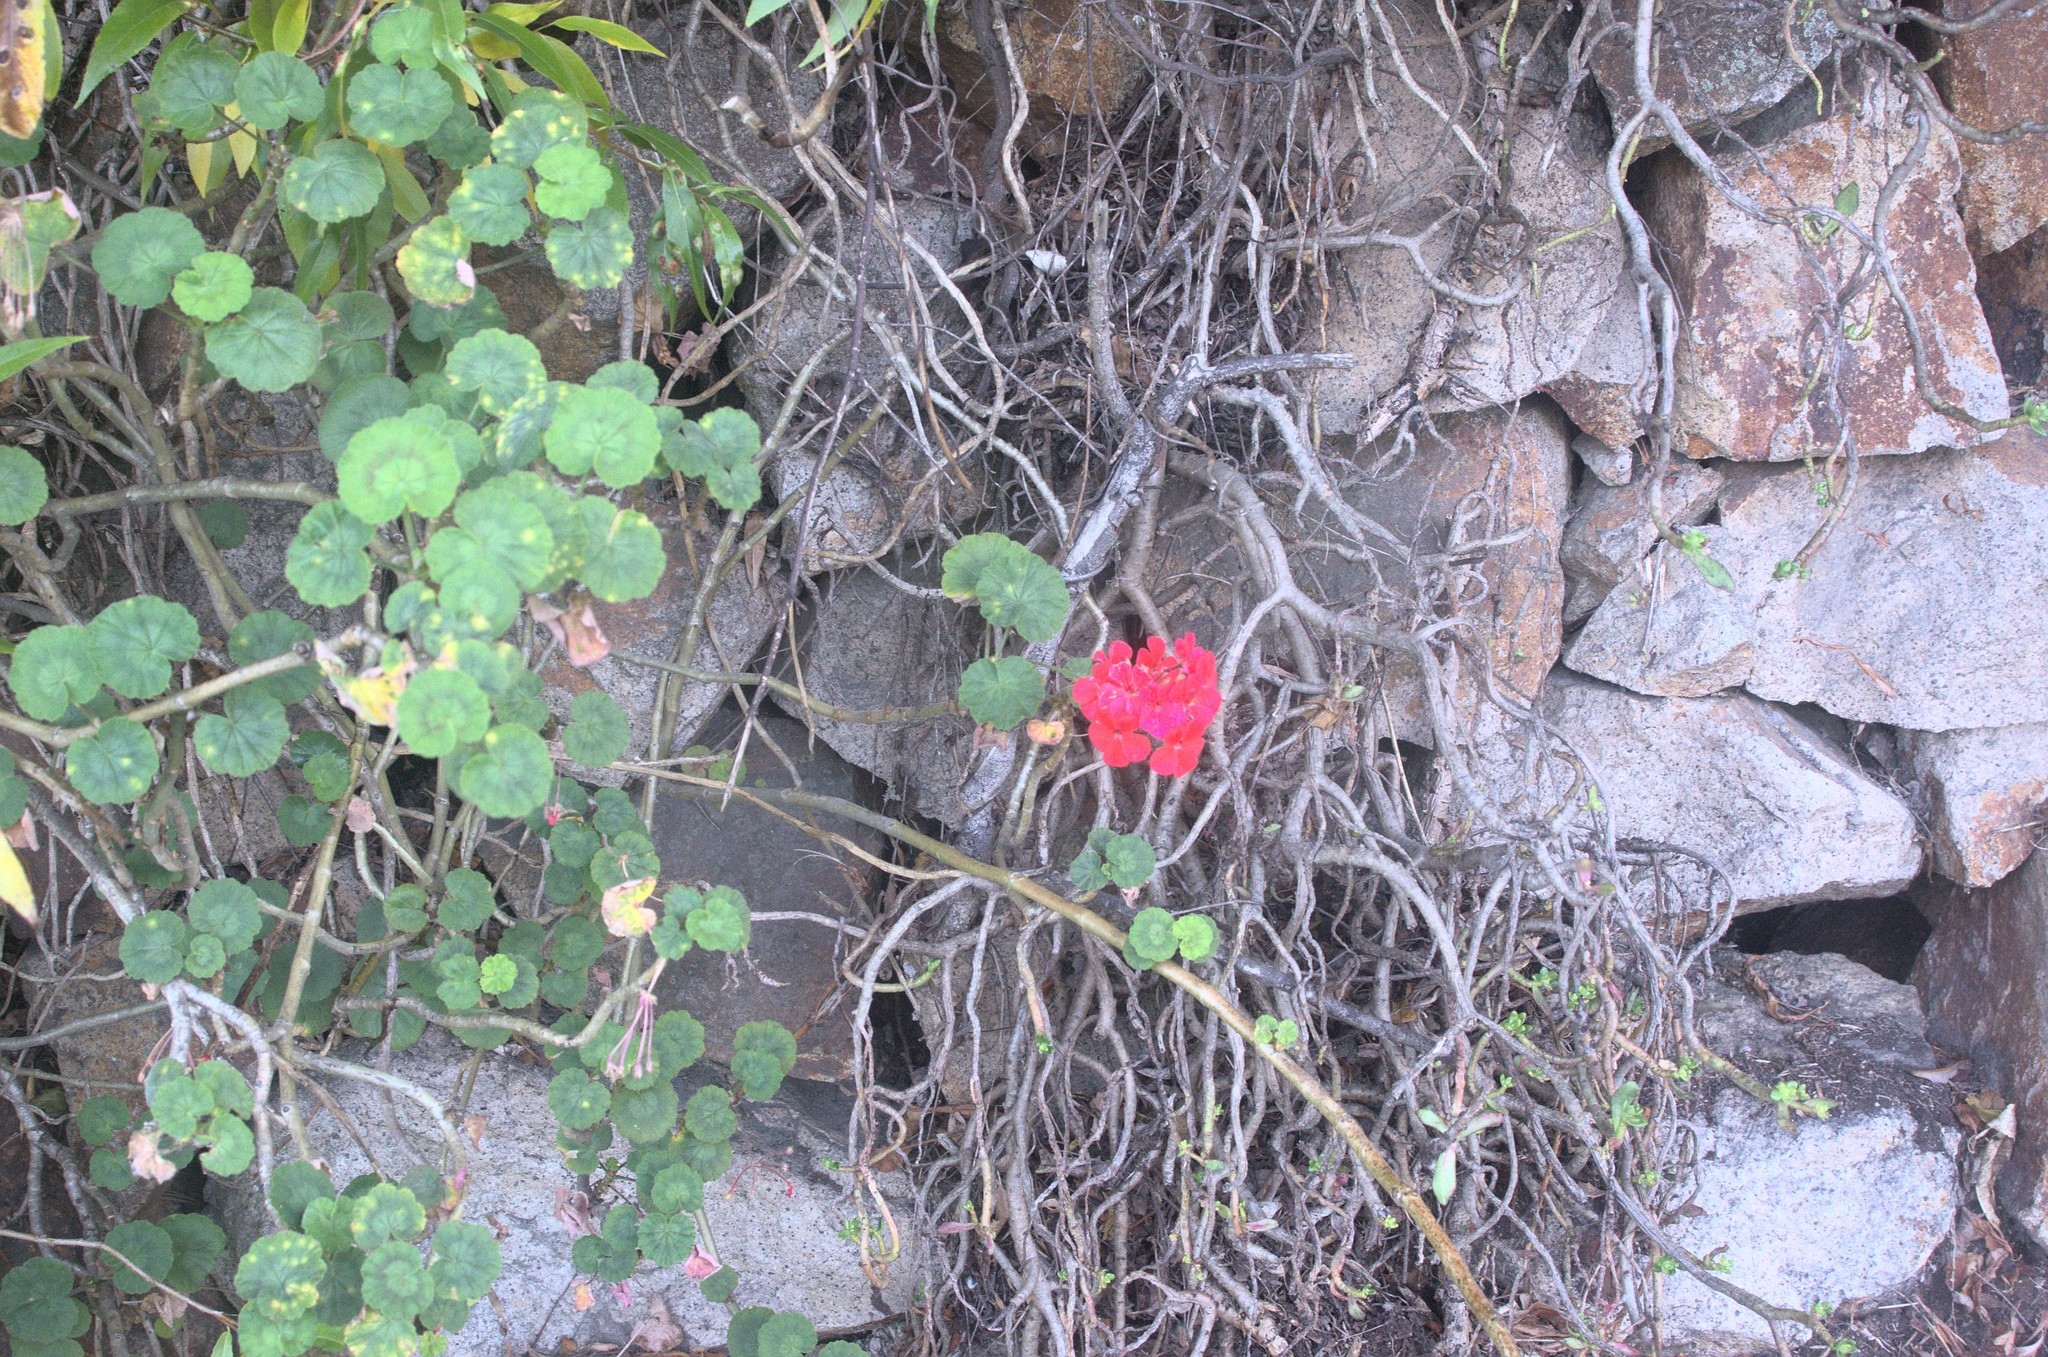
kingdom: Plantae
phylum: Tracheophyta
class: Magnoliopsida
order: Geraniales
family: Geraniaceae
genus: Pelargonium
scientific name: Pelargonium hybridum
